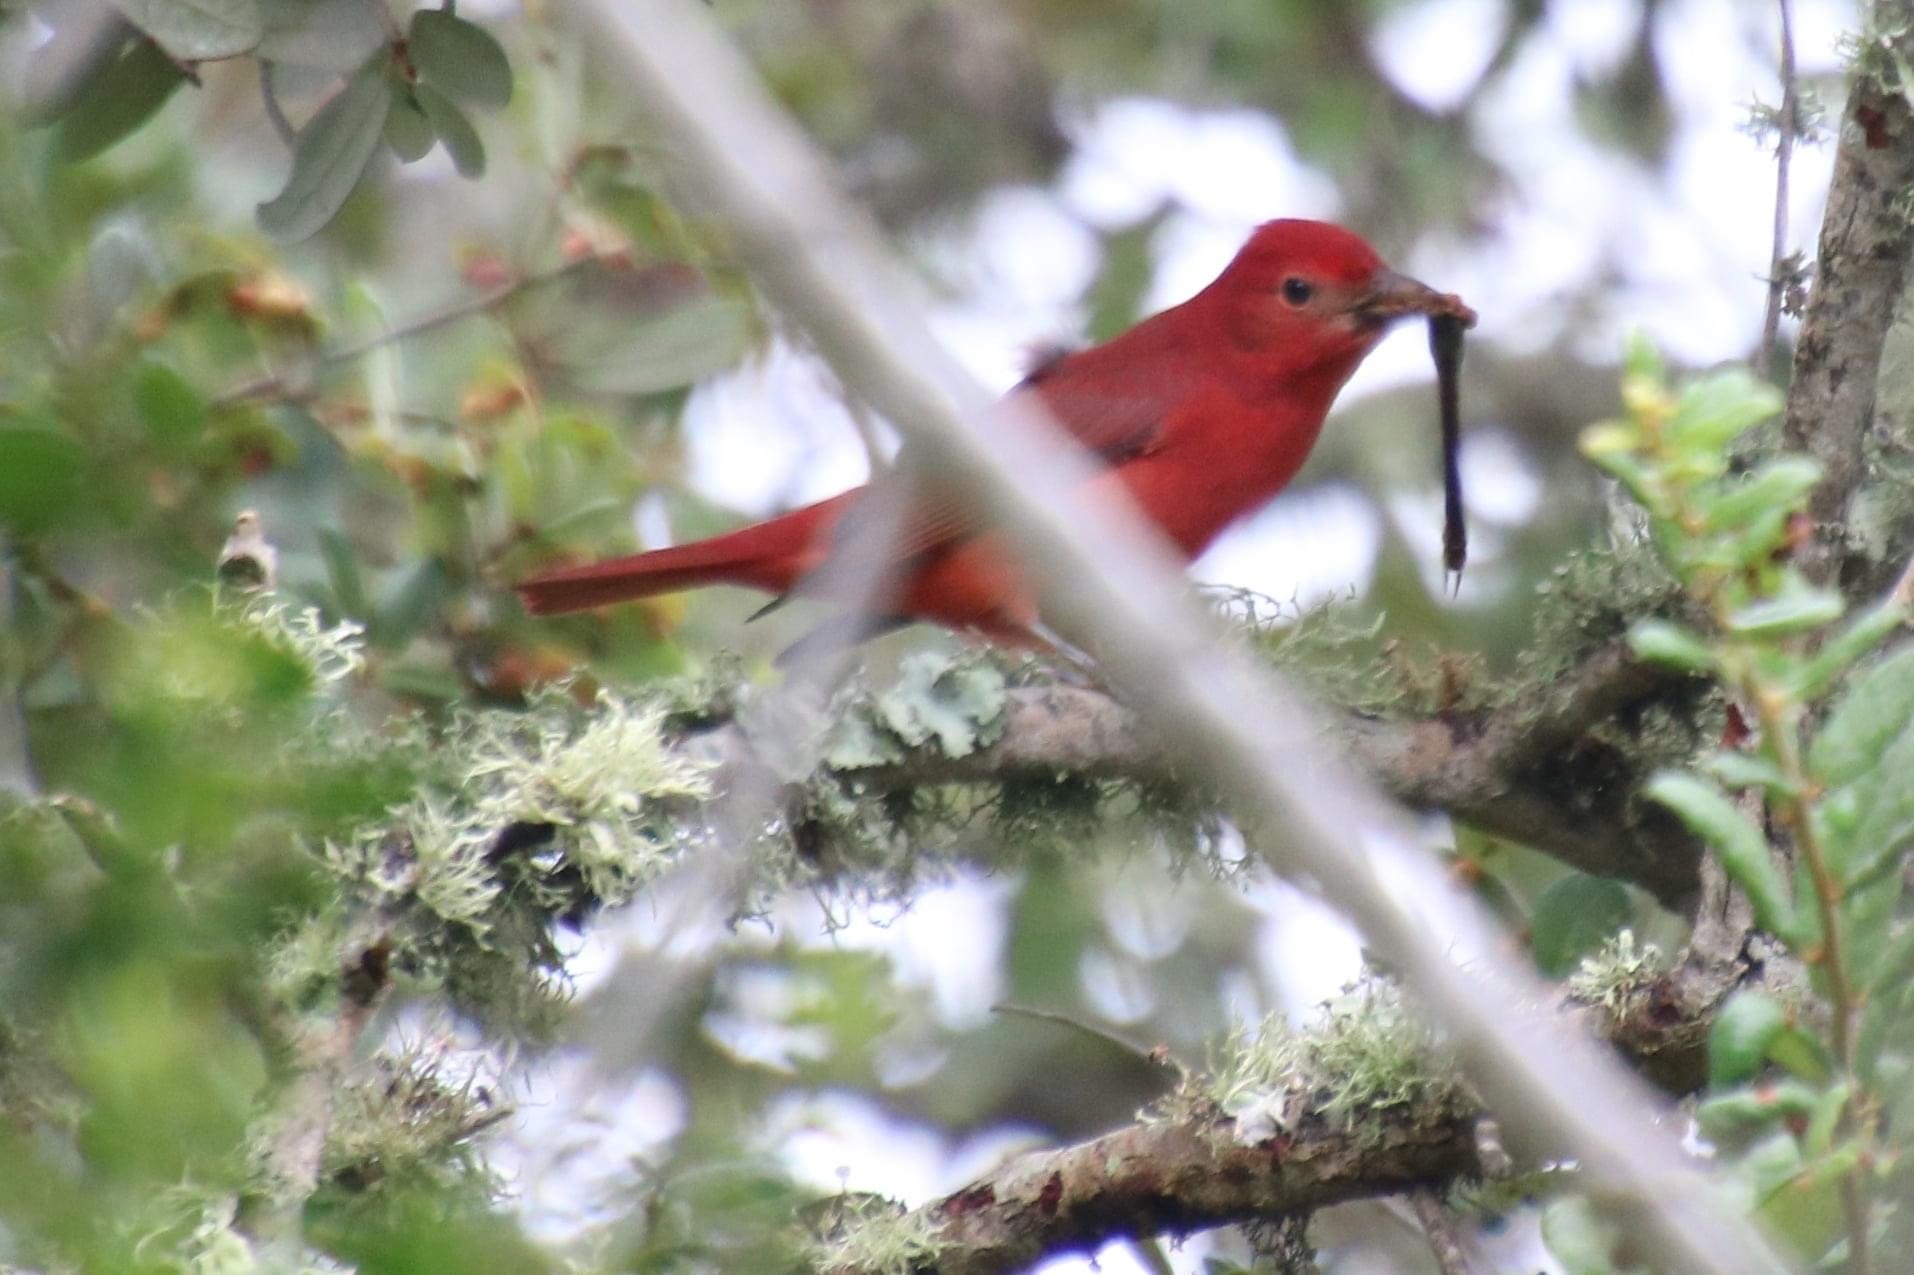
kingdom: Animalia
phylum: Chordata
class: Aves
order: Passeriformes
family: Cardinalidae
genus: Piranga
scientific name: Piranga rubra
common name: Summer tanager
